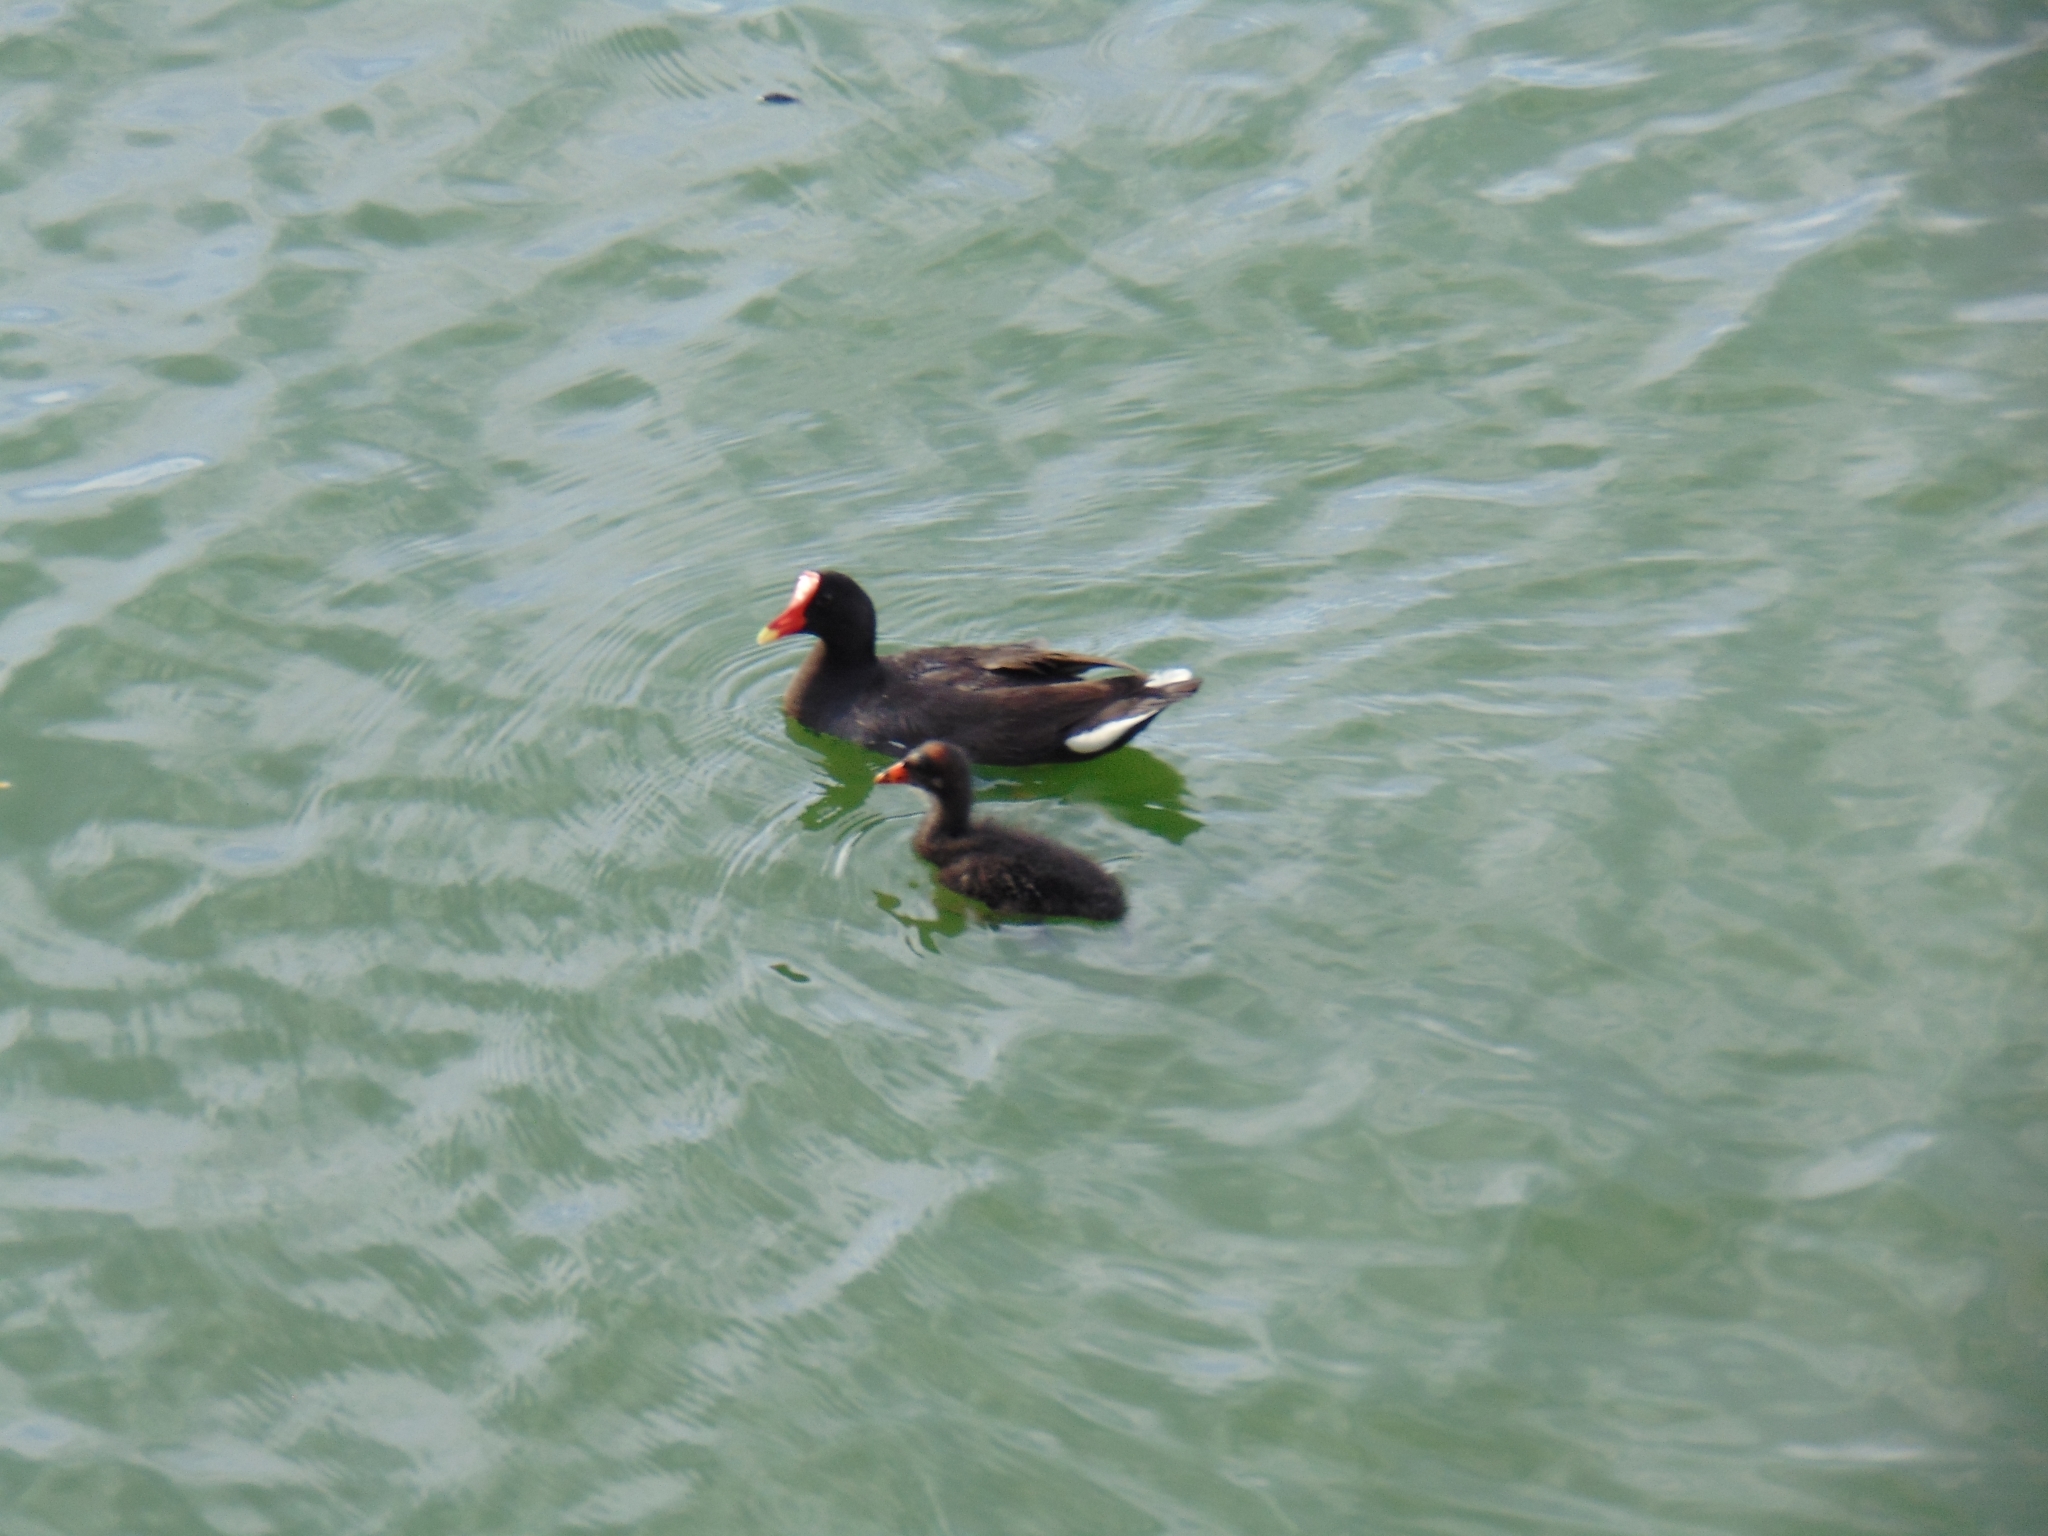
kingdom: Animalia
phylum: Chordata
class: Aves
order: Gruiformes
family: Rallidae
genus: Gallinula
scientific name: Gallinula chloropus
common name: Common moorhen
